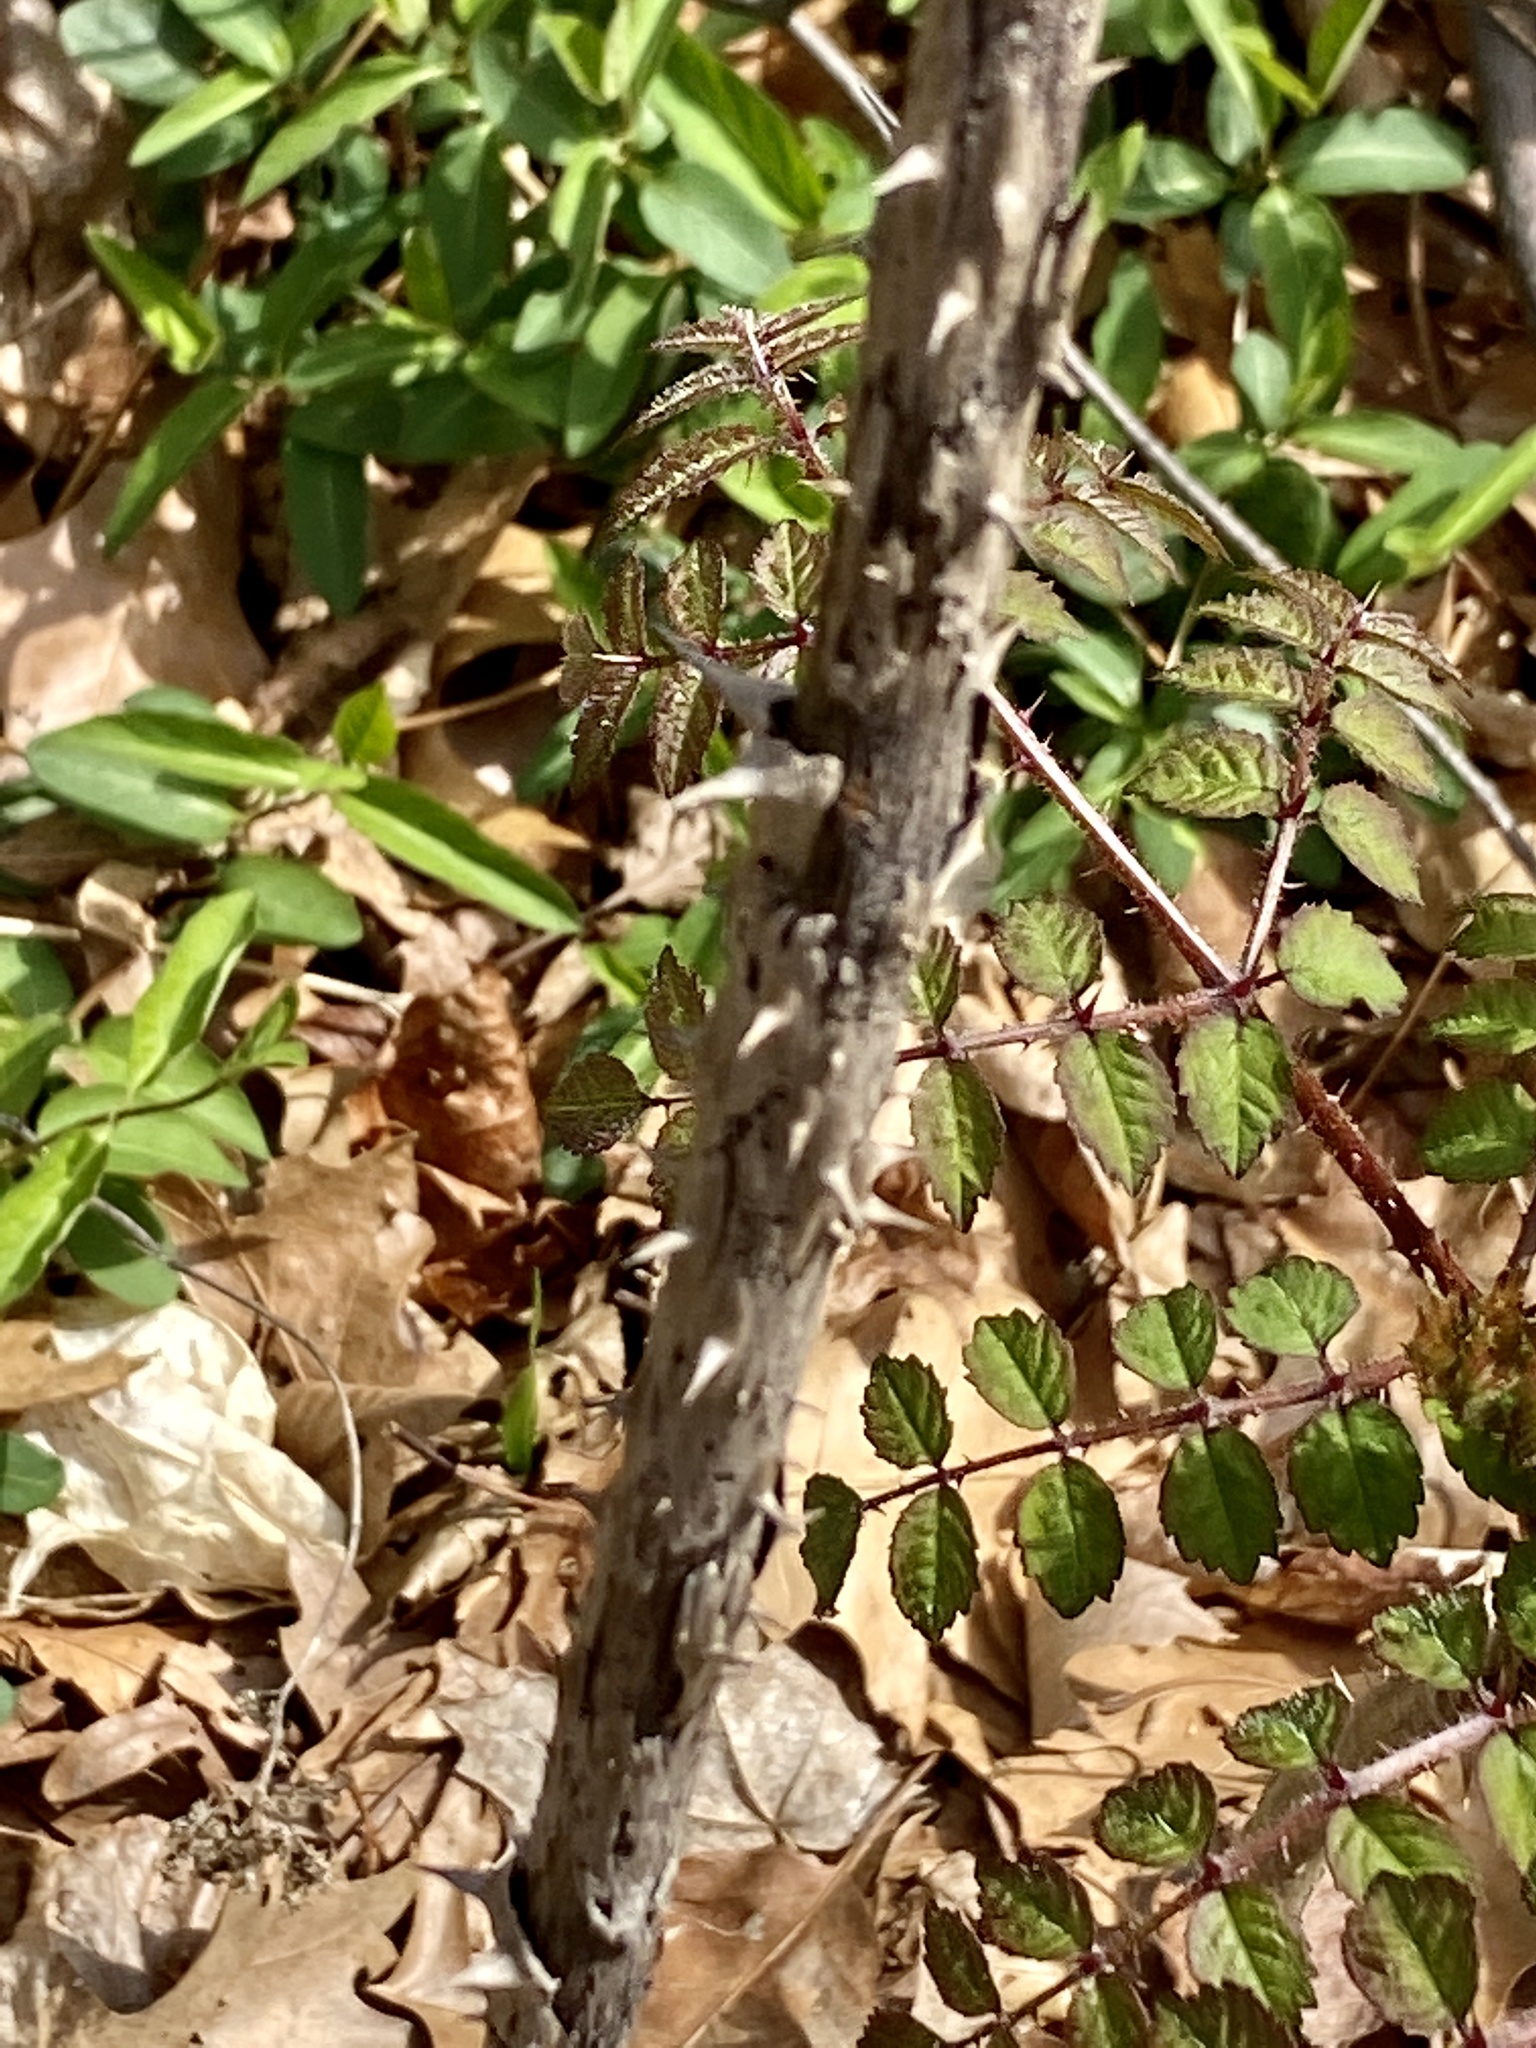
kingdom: Plantae
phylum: Tracheophyta
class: Magnoliopsida
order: Apiales
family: Araliaceae
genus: Aralia
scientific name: Aralia elata
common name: Japanese angelica-tree
